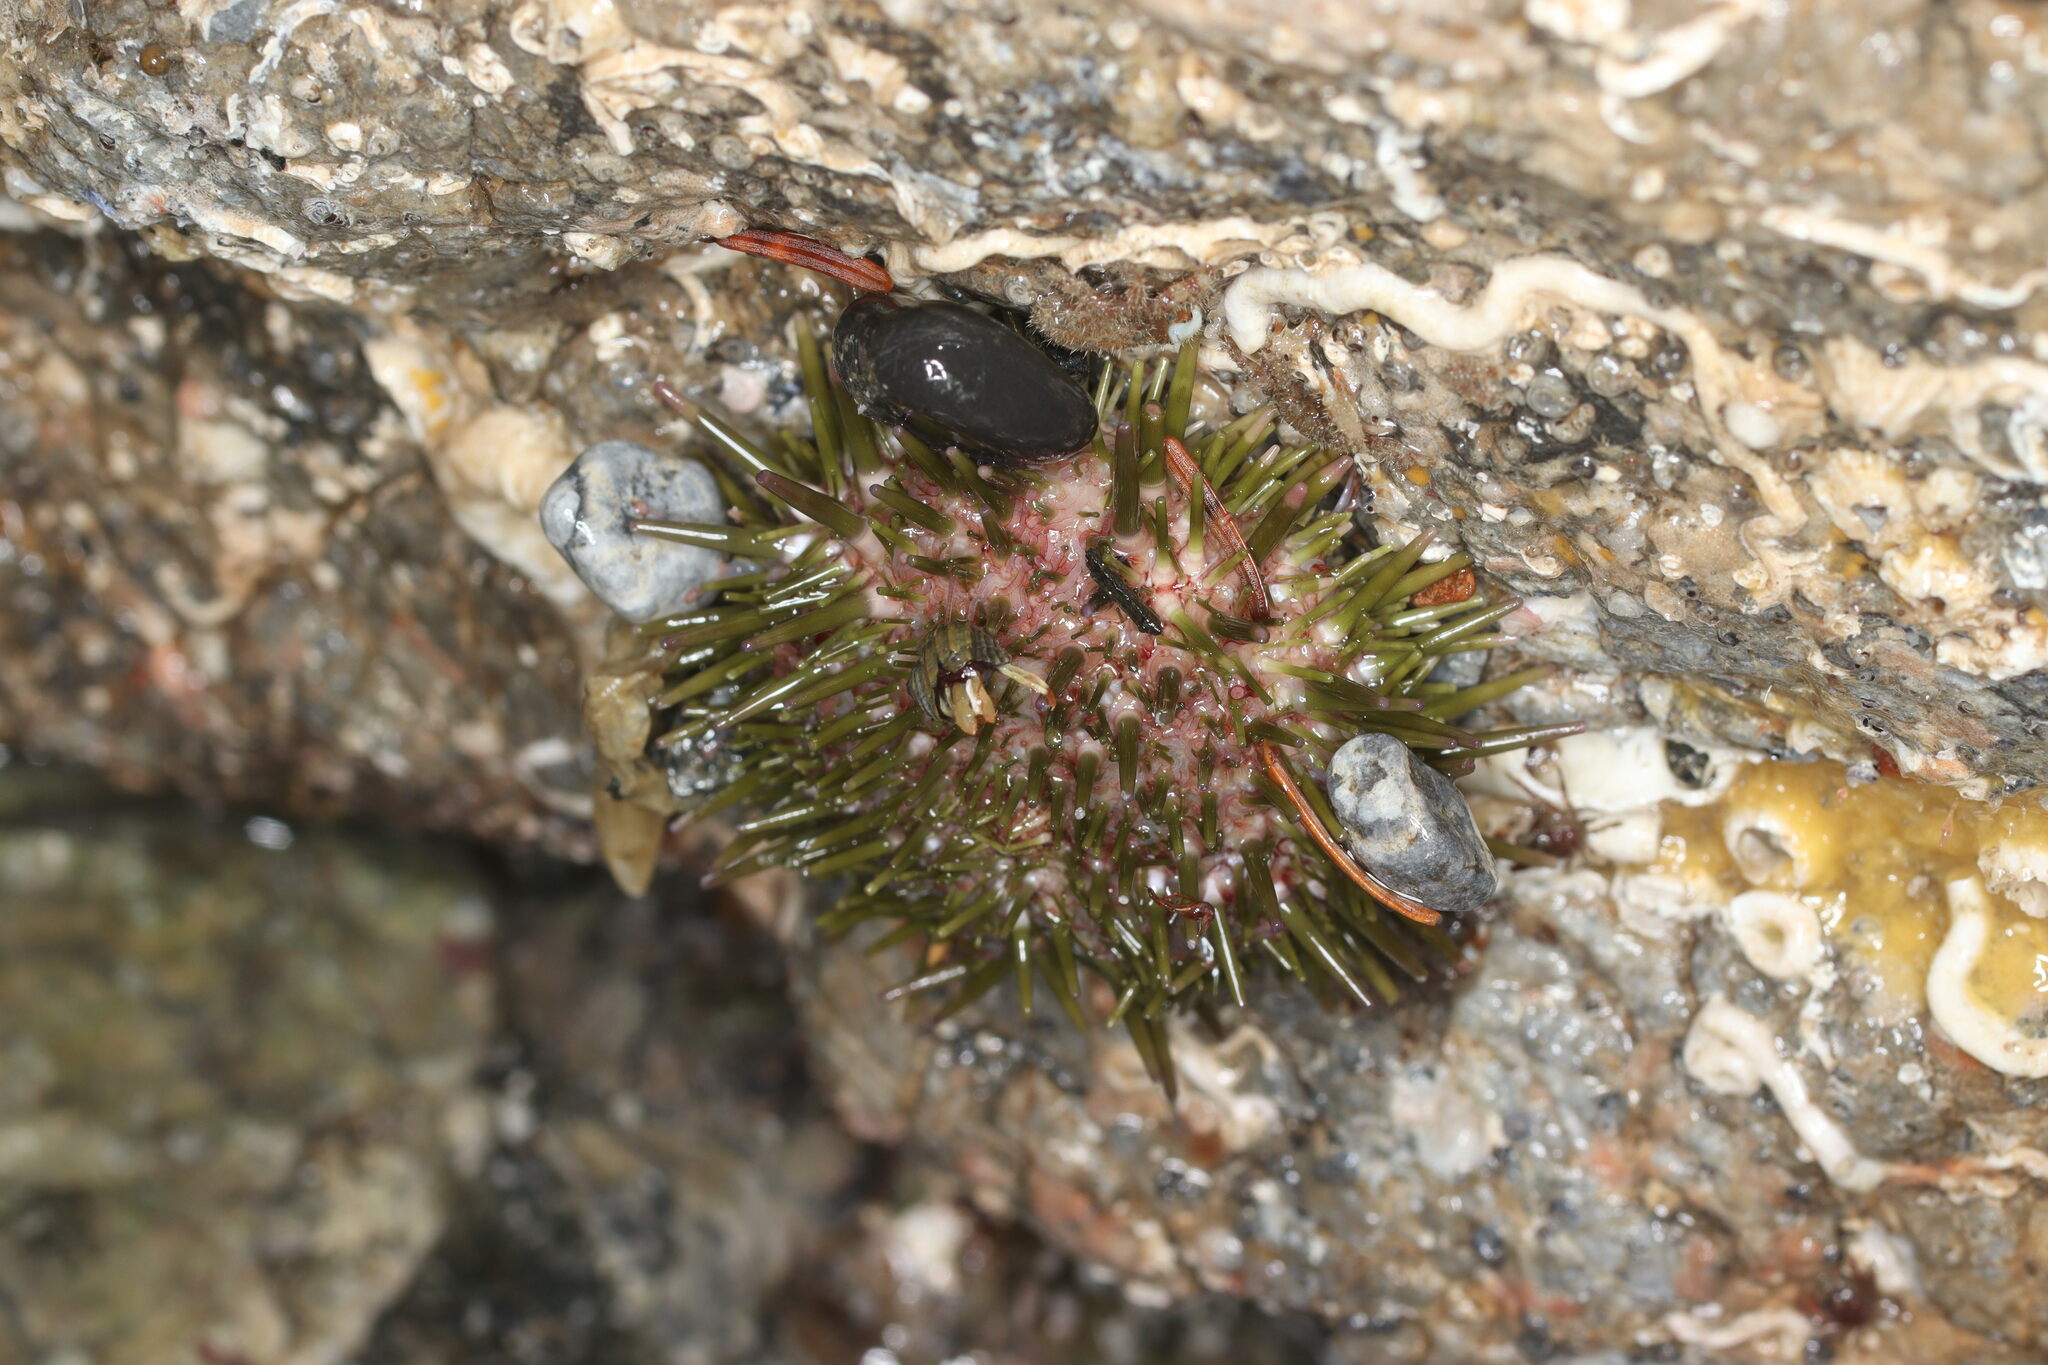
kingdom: Animalia
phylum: Echinodermata
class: Echinoidea
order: Camarodonta
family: Strongylocentrotidae
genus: Strongylocentrotus
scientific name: Strongylocentrotus purpuratus
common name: Purple sea urchin
